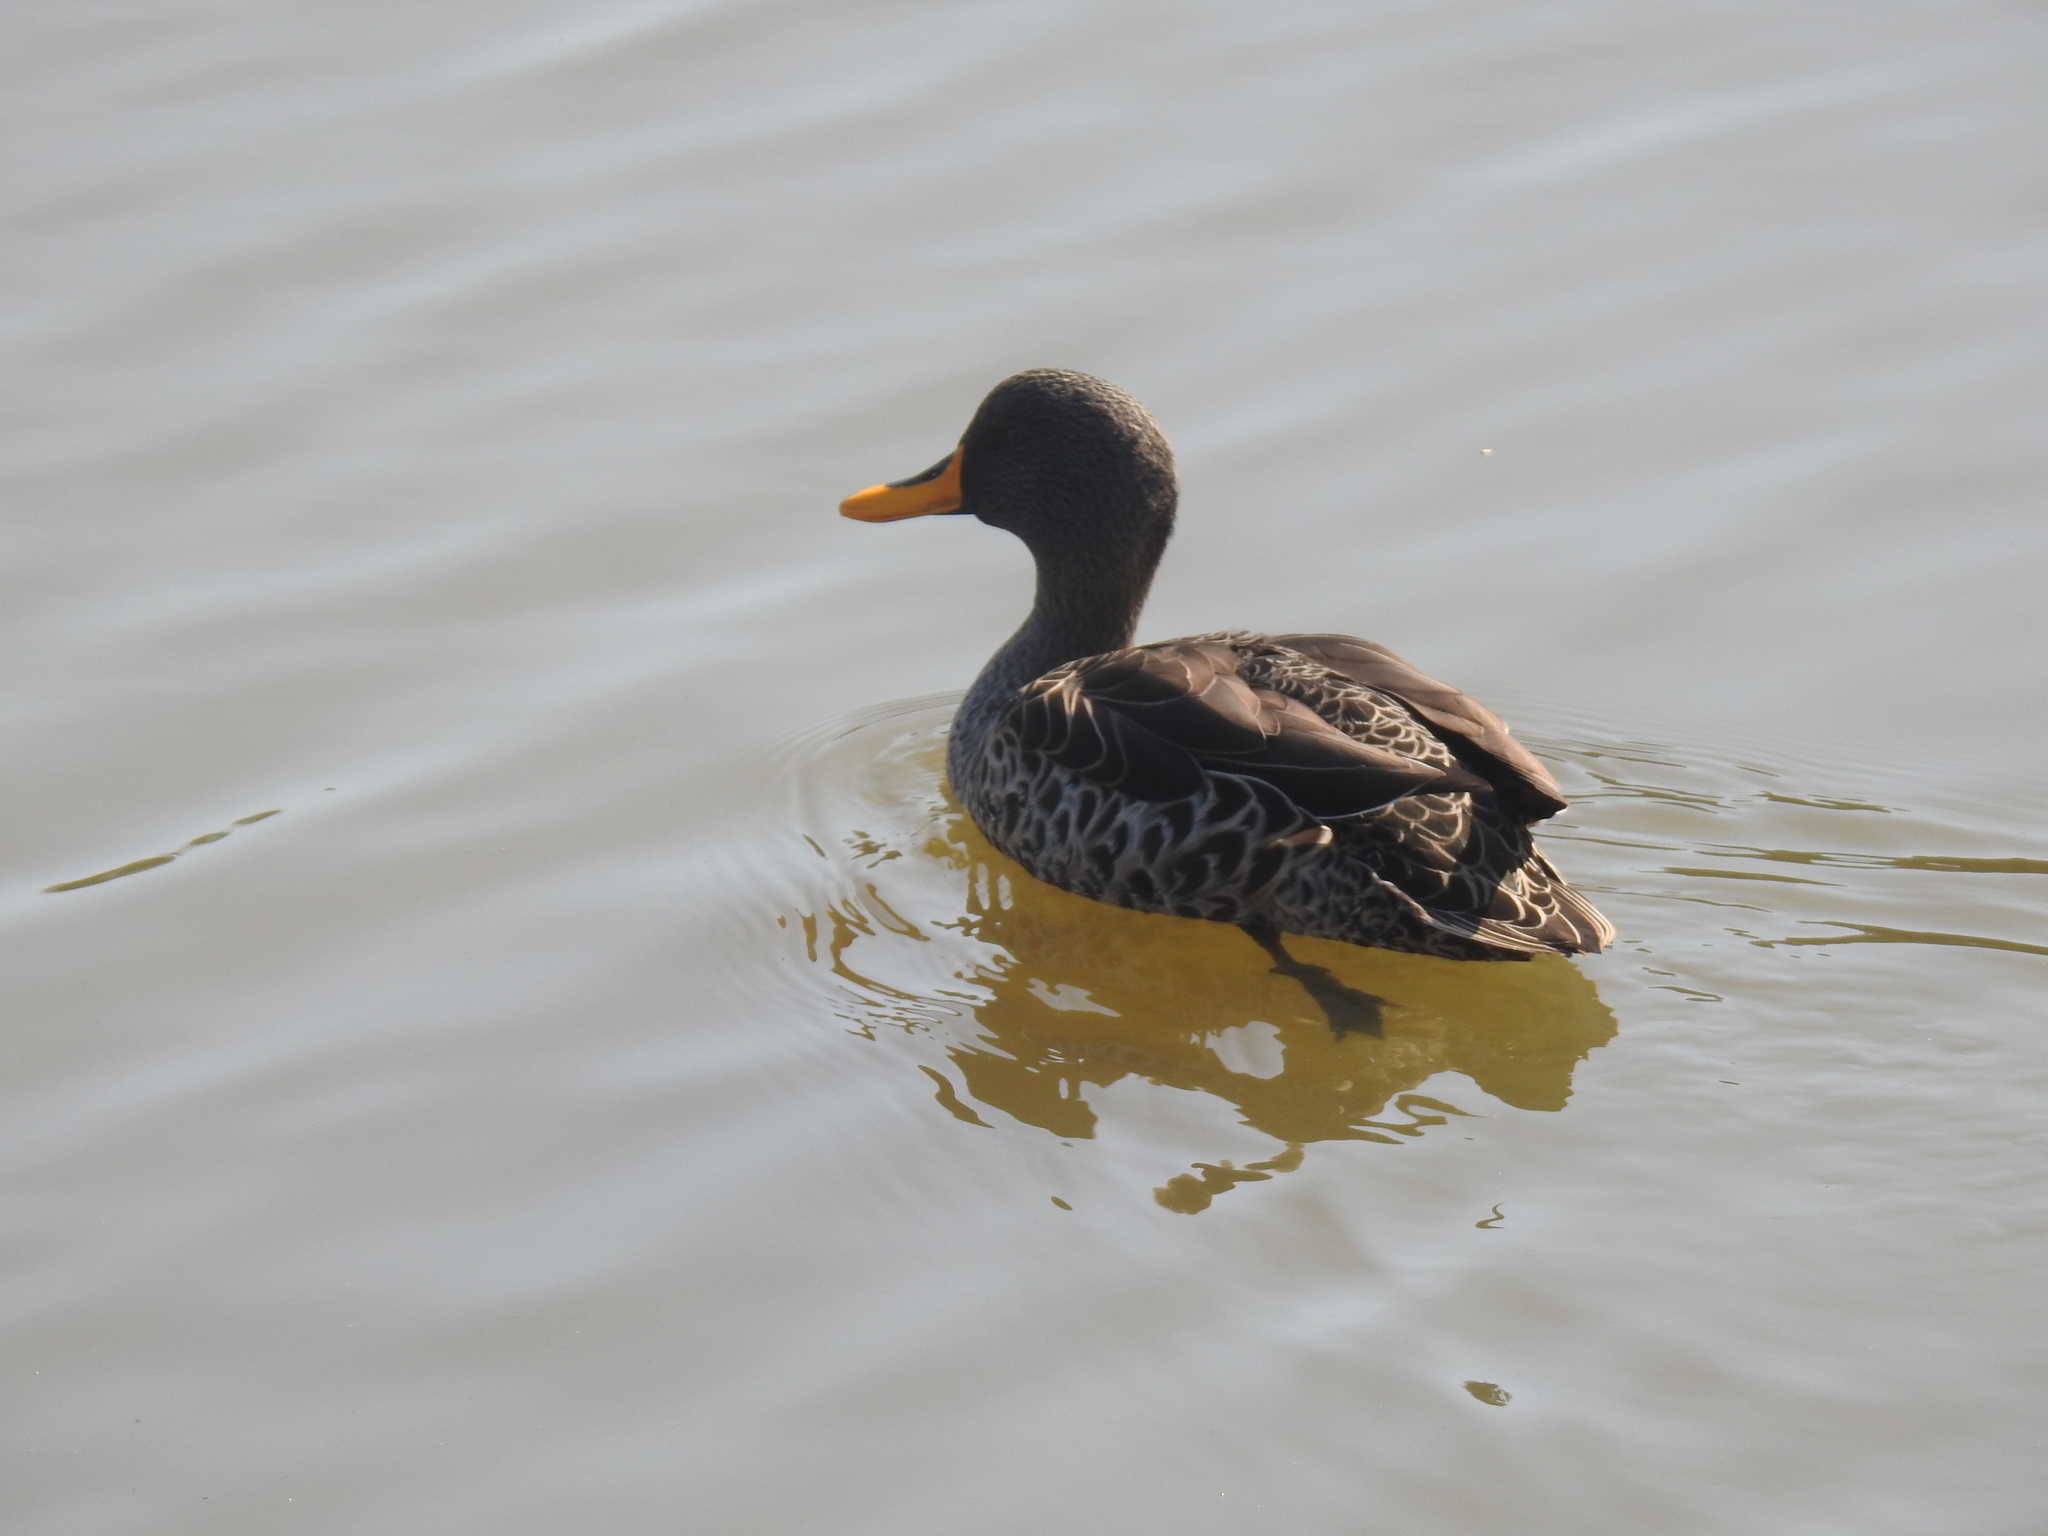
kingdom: Animalia
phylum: Chordata
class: Aves
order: Anseriformes
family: Anatidae
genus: Anas
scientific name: Anas undulata
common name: Yellow-billed duck
